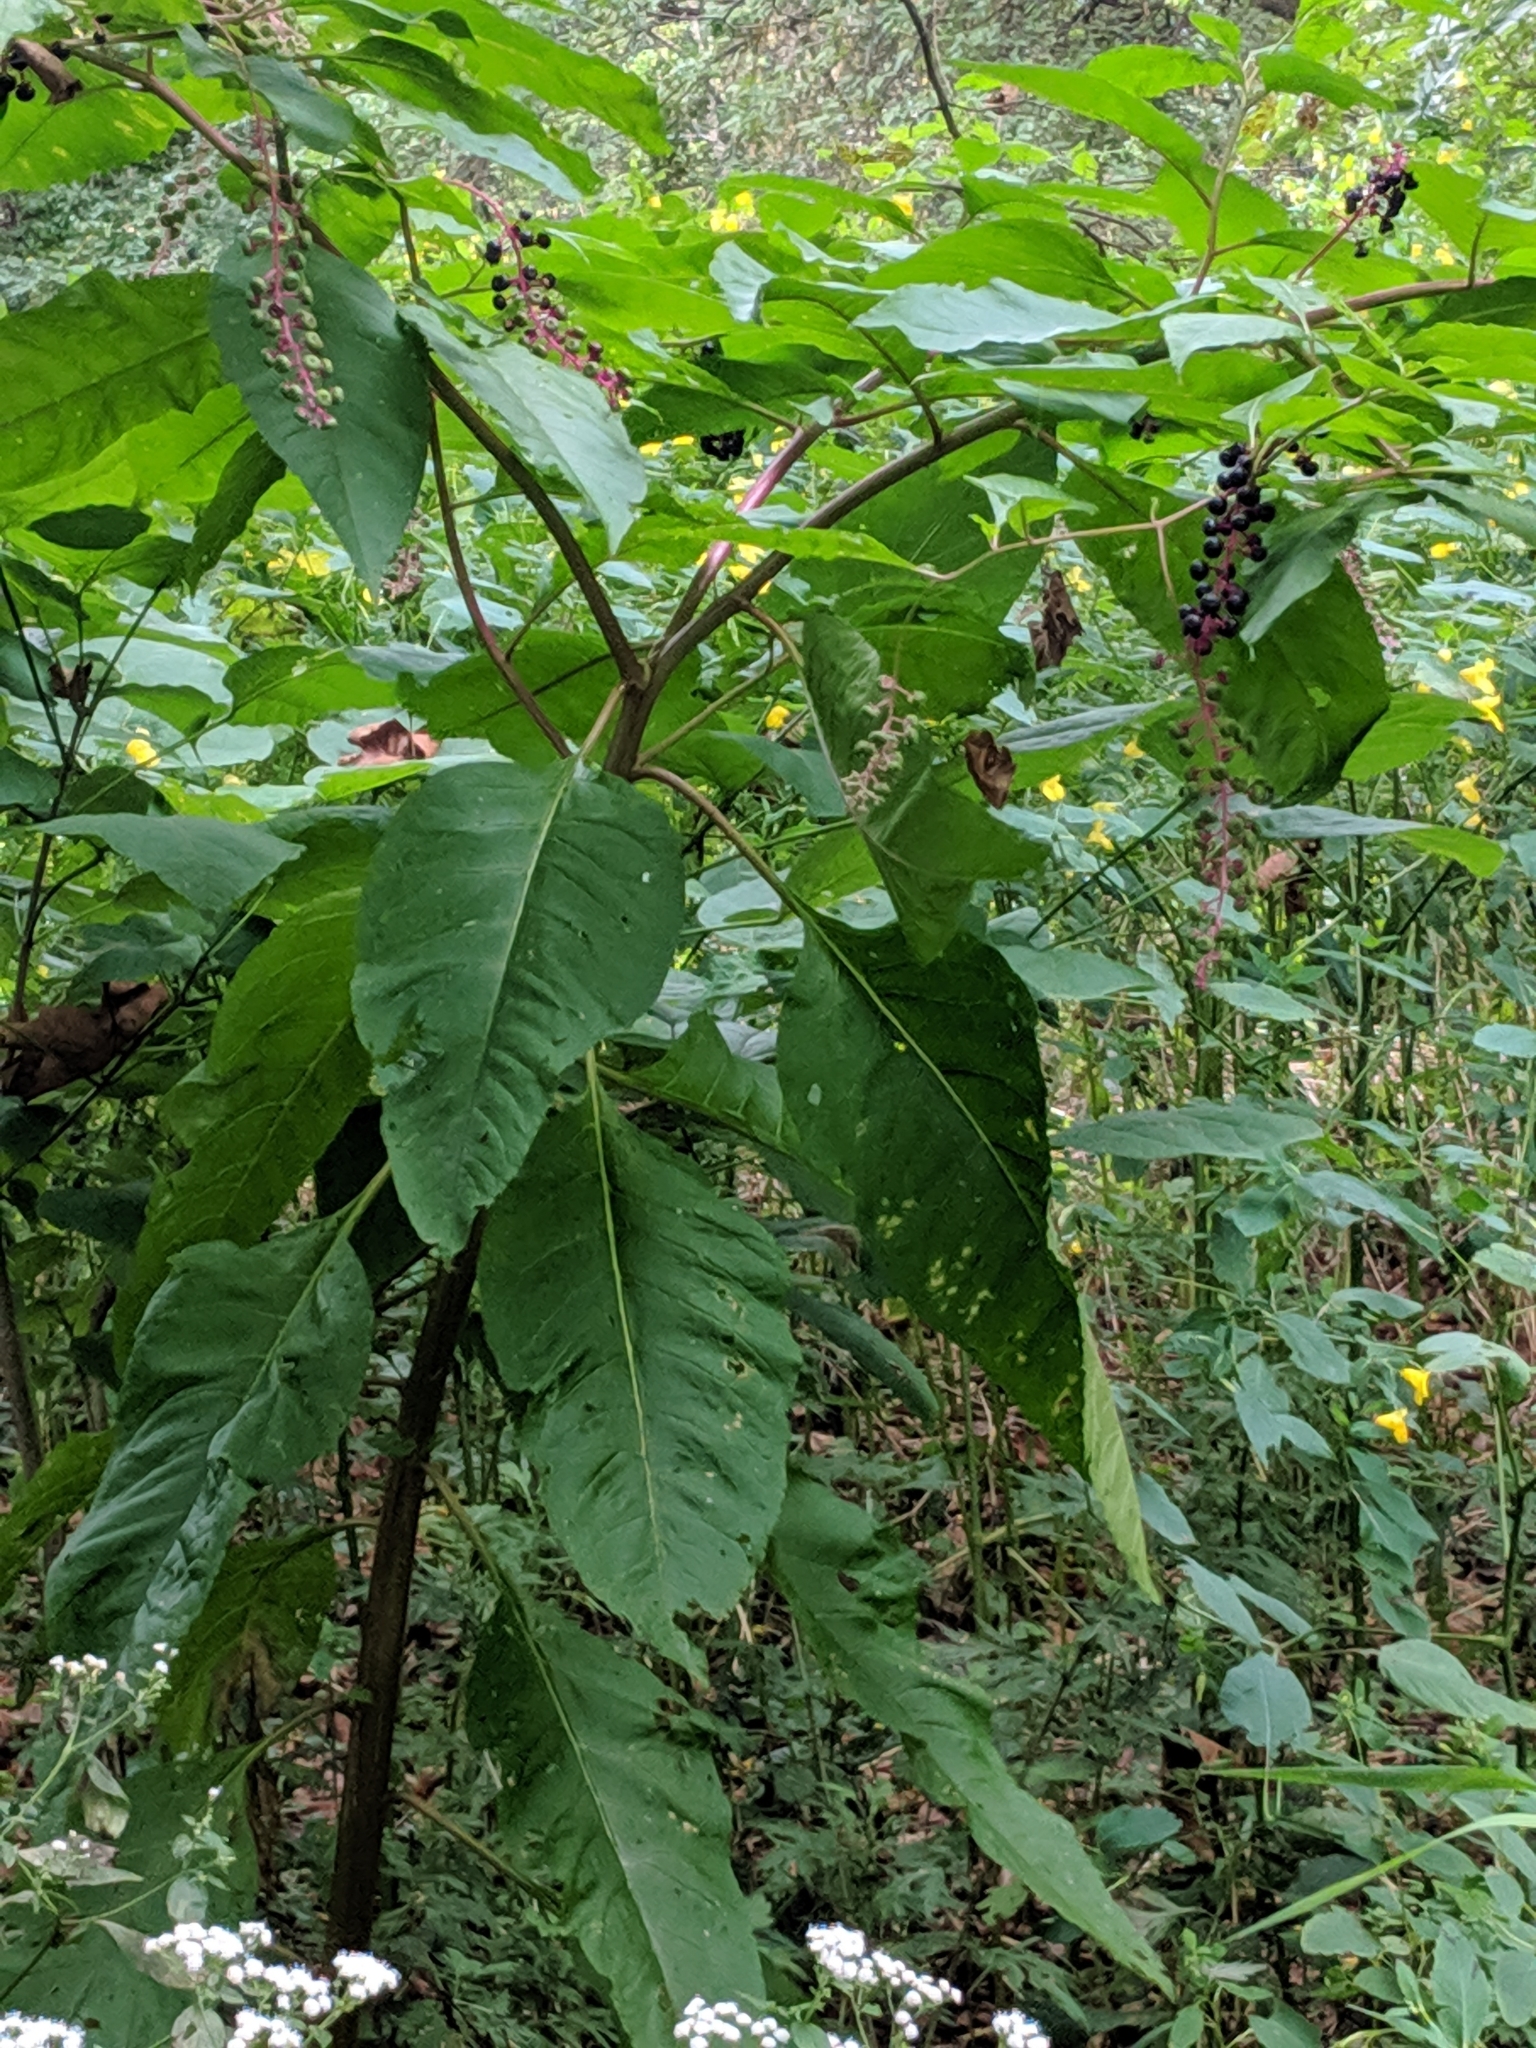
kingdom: Plantae
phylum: Tracheophyta
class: Magnoliopsida
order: Caryophyllales
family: Phytolaccaceae
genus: Phytolacca
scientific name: Phytolacca americana
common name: American pokeweed
